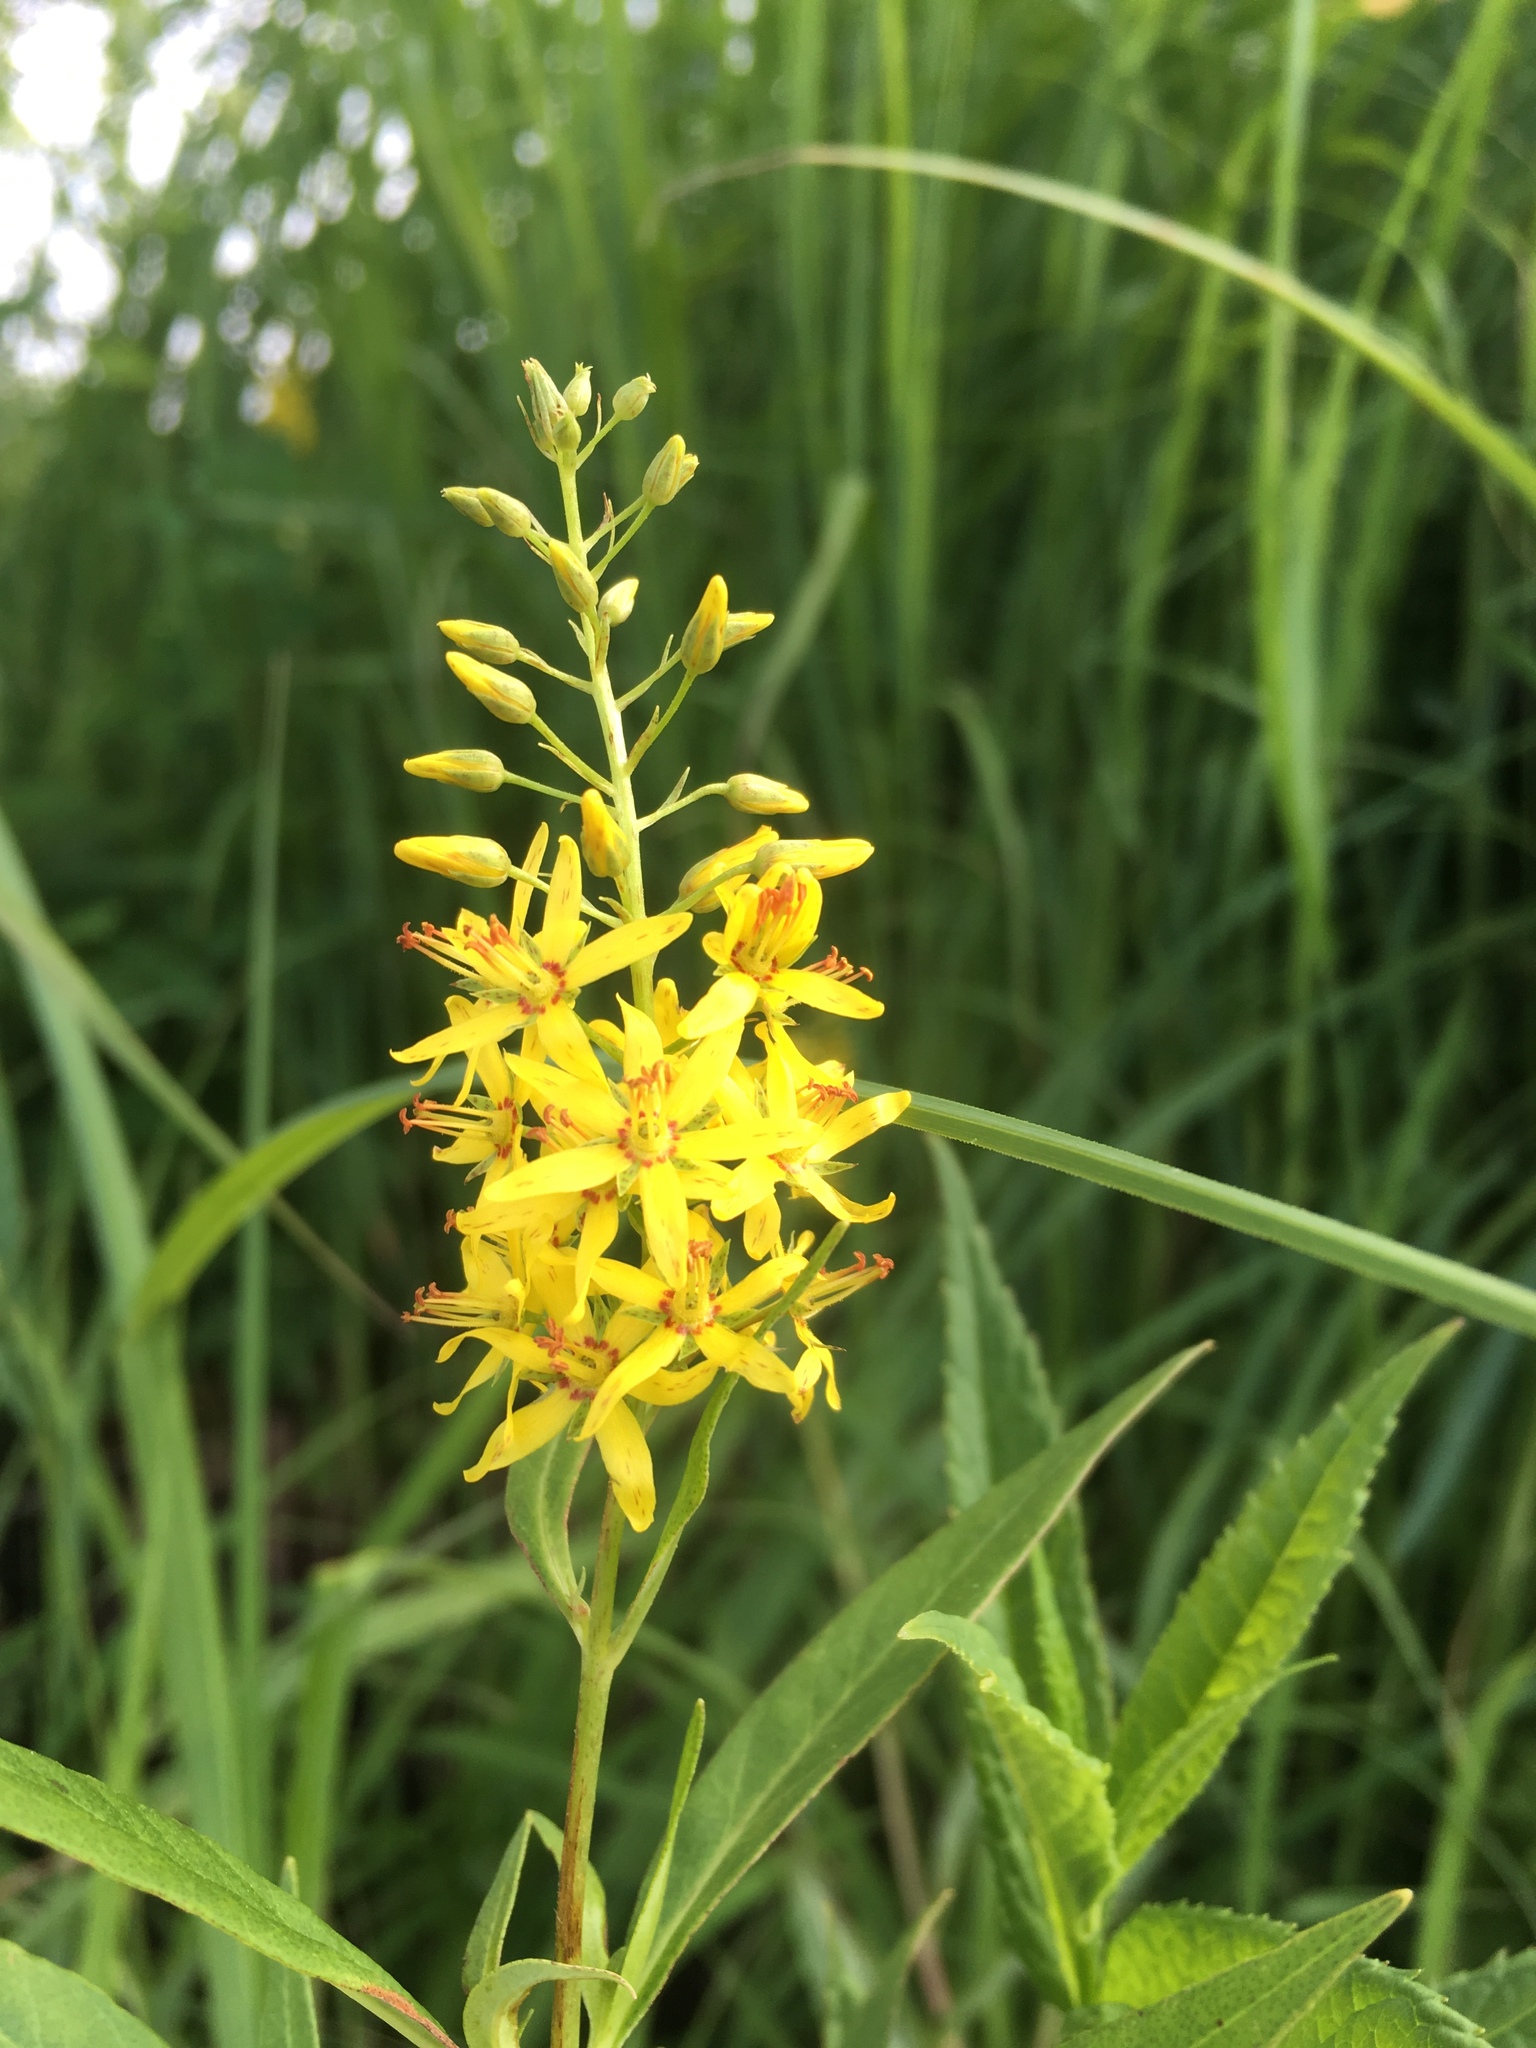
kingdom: Plantae
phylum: Tracheophyta
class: Magnoliopsida
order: Ericales
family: Primulaceae
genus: Lysimachia
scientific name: Lysimachia terrestris
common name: Lake loosestrife
